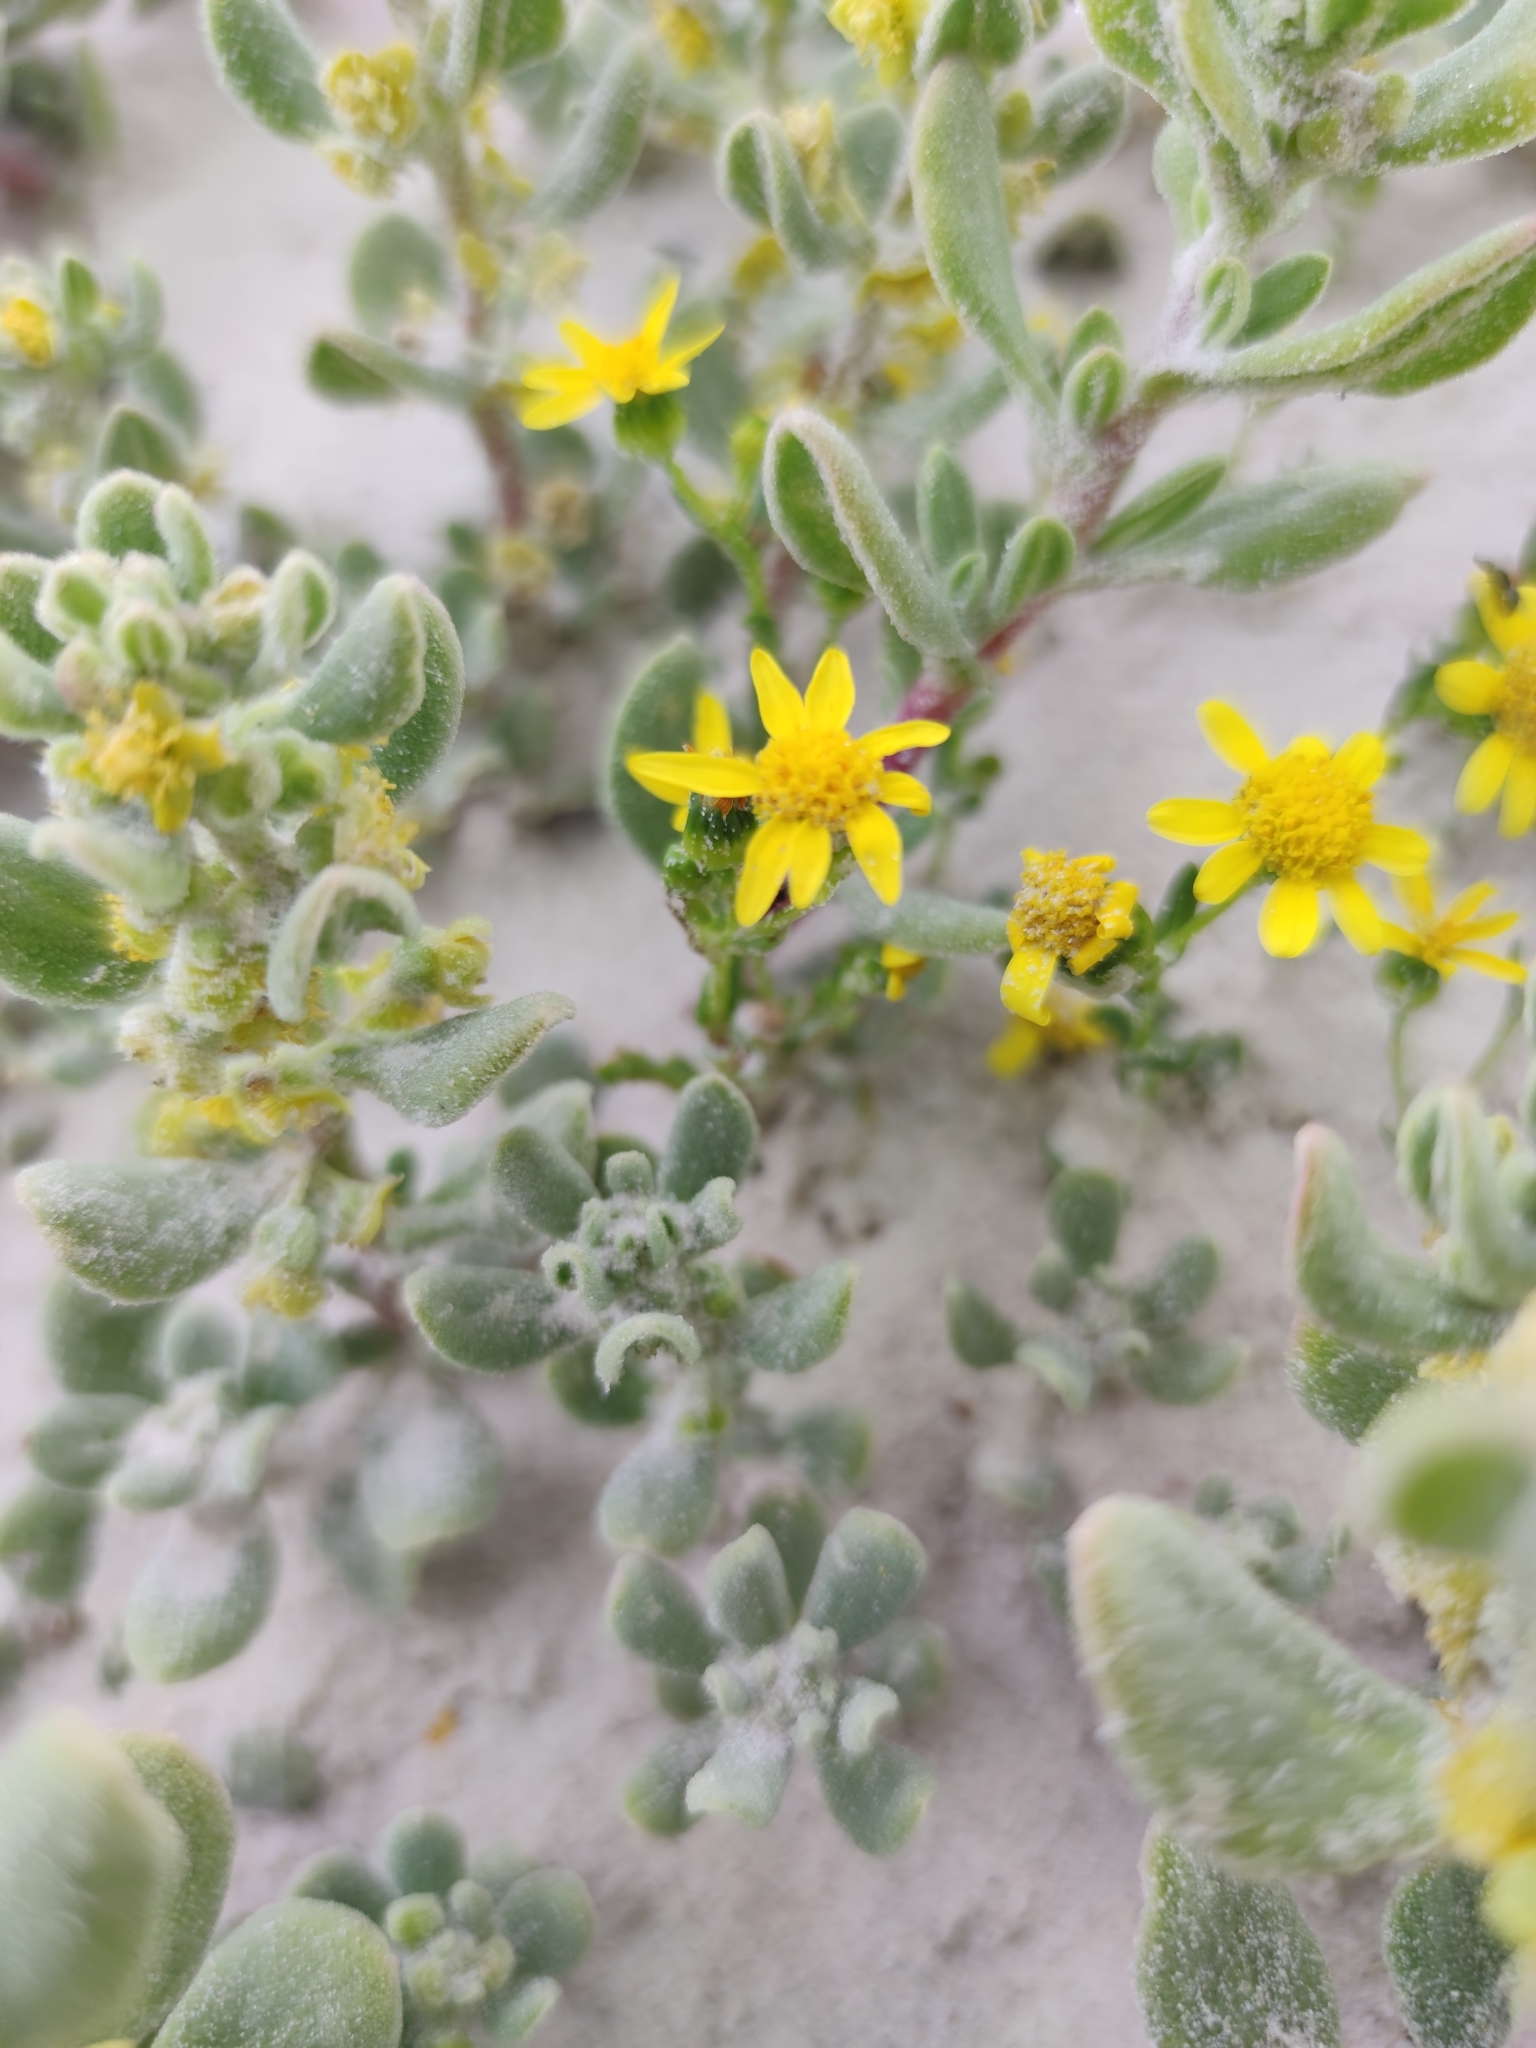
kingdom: Plantae
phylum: Tracheophyta
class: Magnoliopsida
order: Asterales
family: Asteraceae
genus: Senecio
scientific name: Senecio maritimus
